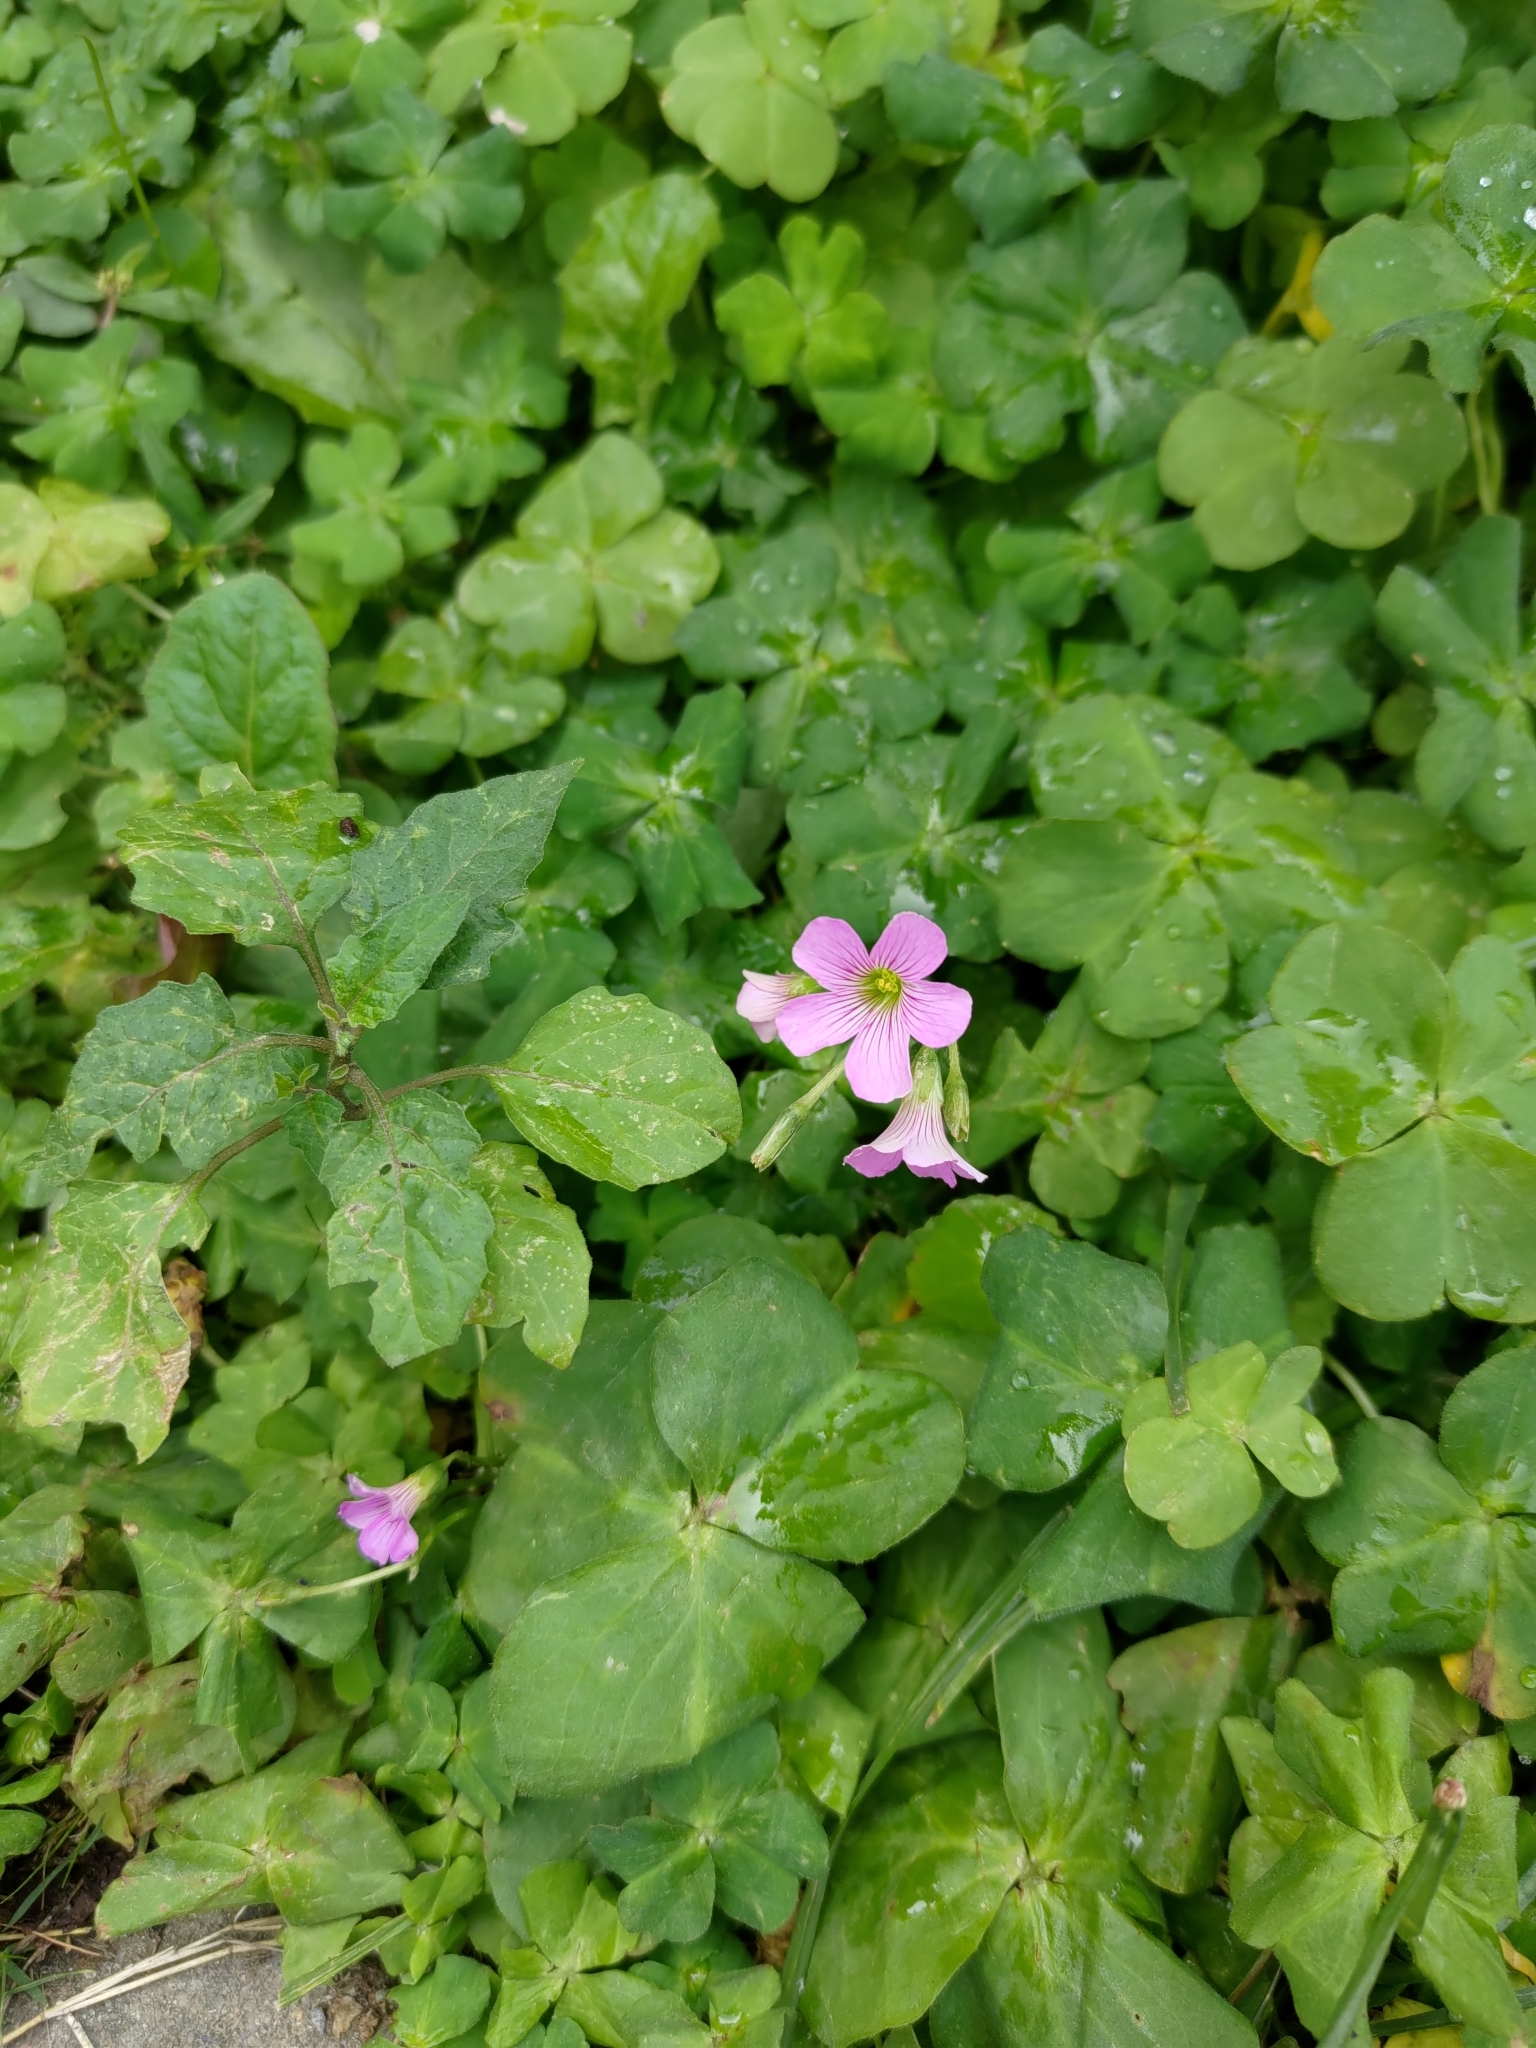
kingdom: Plantae
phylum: Tracheophyta
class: Magnoliopsida
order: Oxalidales
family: Oxalidaceae
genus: Oxalis
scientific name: Oxalis debilis
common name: Large-flowered pink-sorrel
